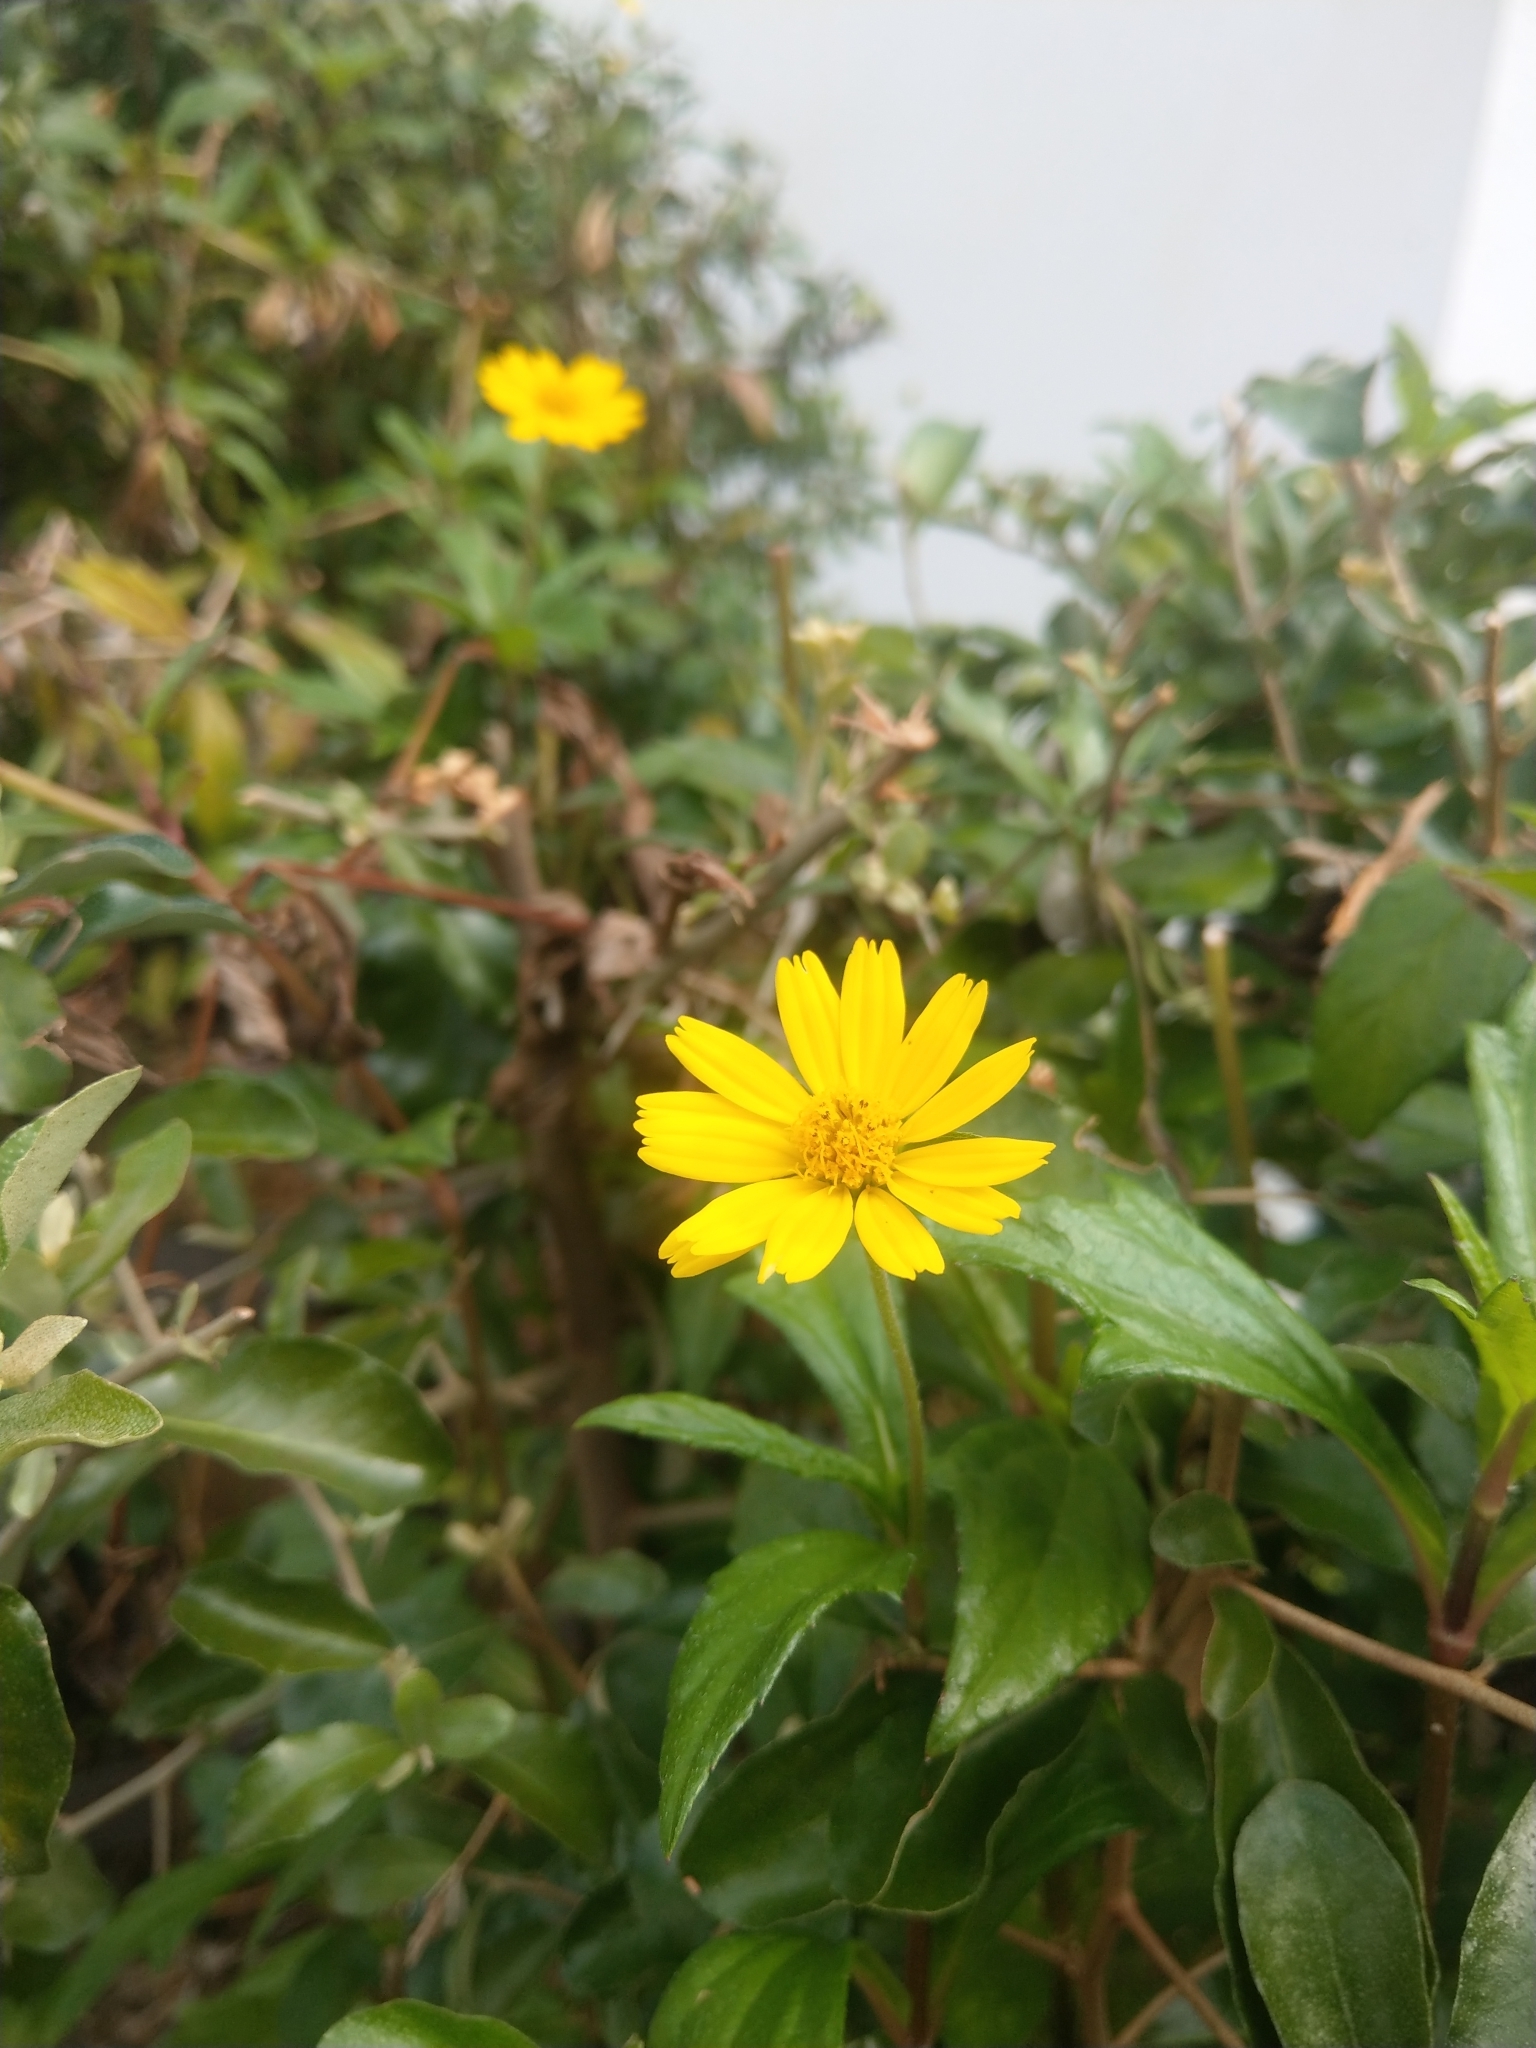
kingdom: Plantae
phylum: Tracheophyta
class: Magnoliopsida
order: Asterales
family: Asteraceae
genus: Sphagneticola
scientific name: Sphagneticola trilobata
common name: Bay biscayne creeping-oxeye
